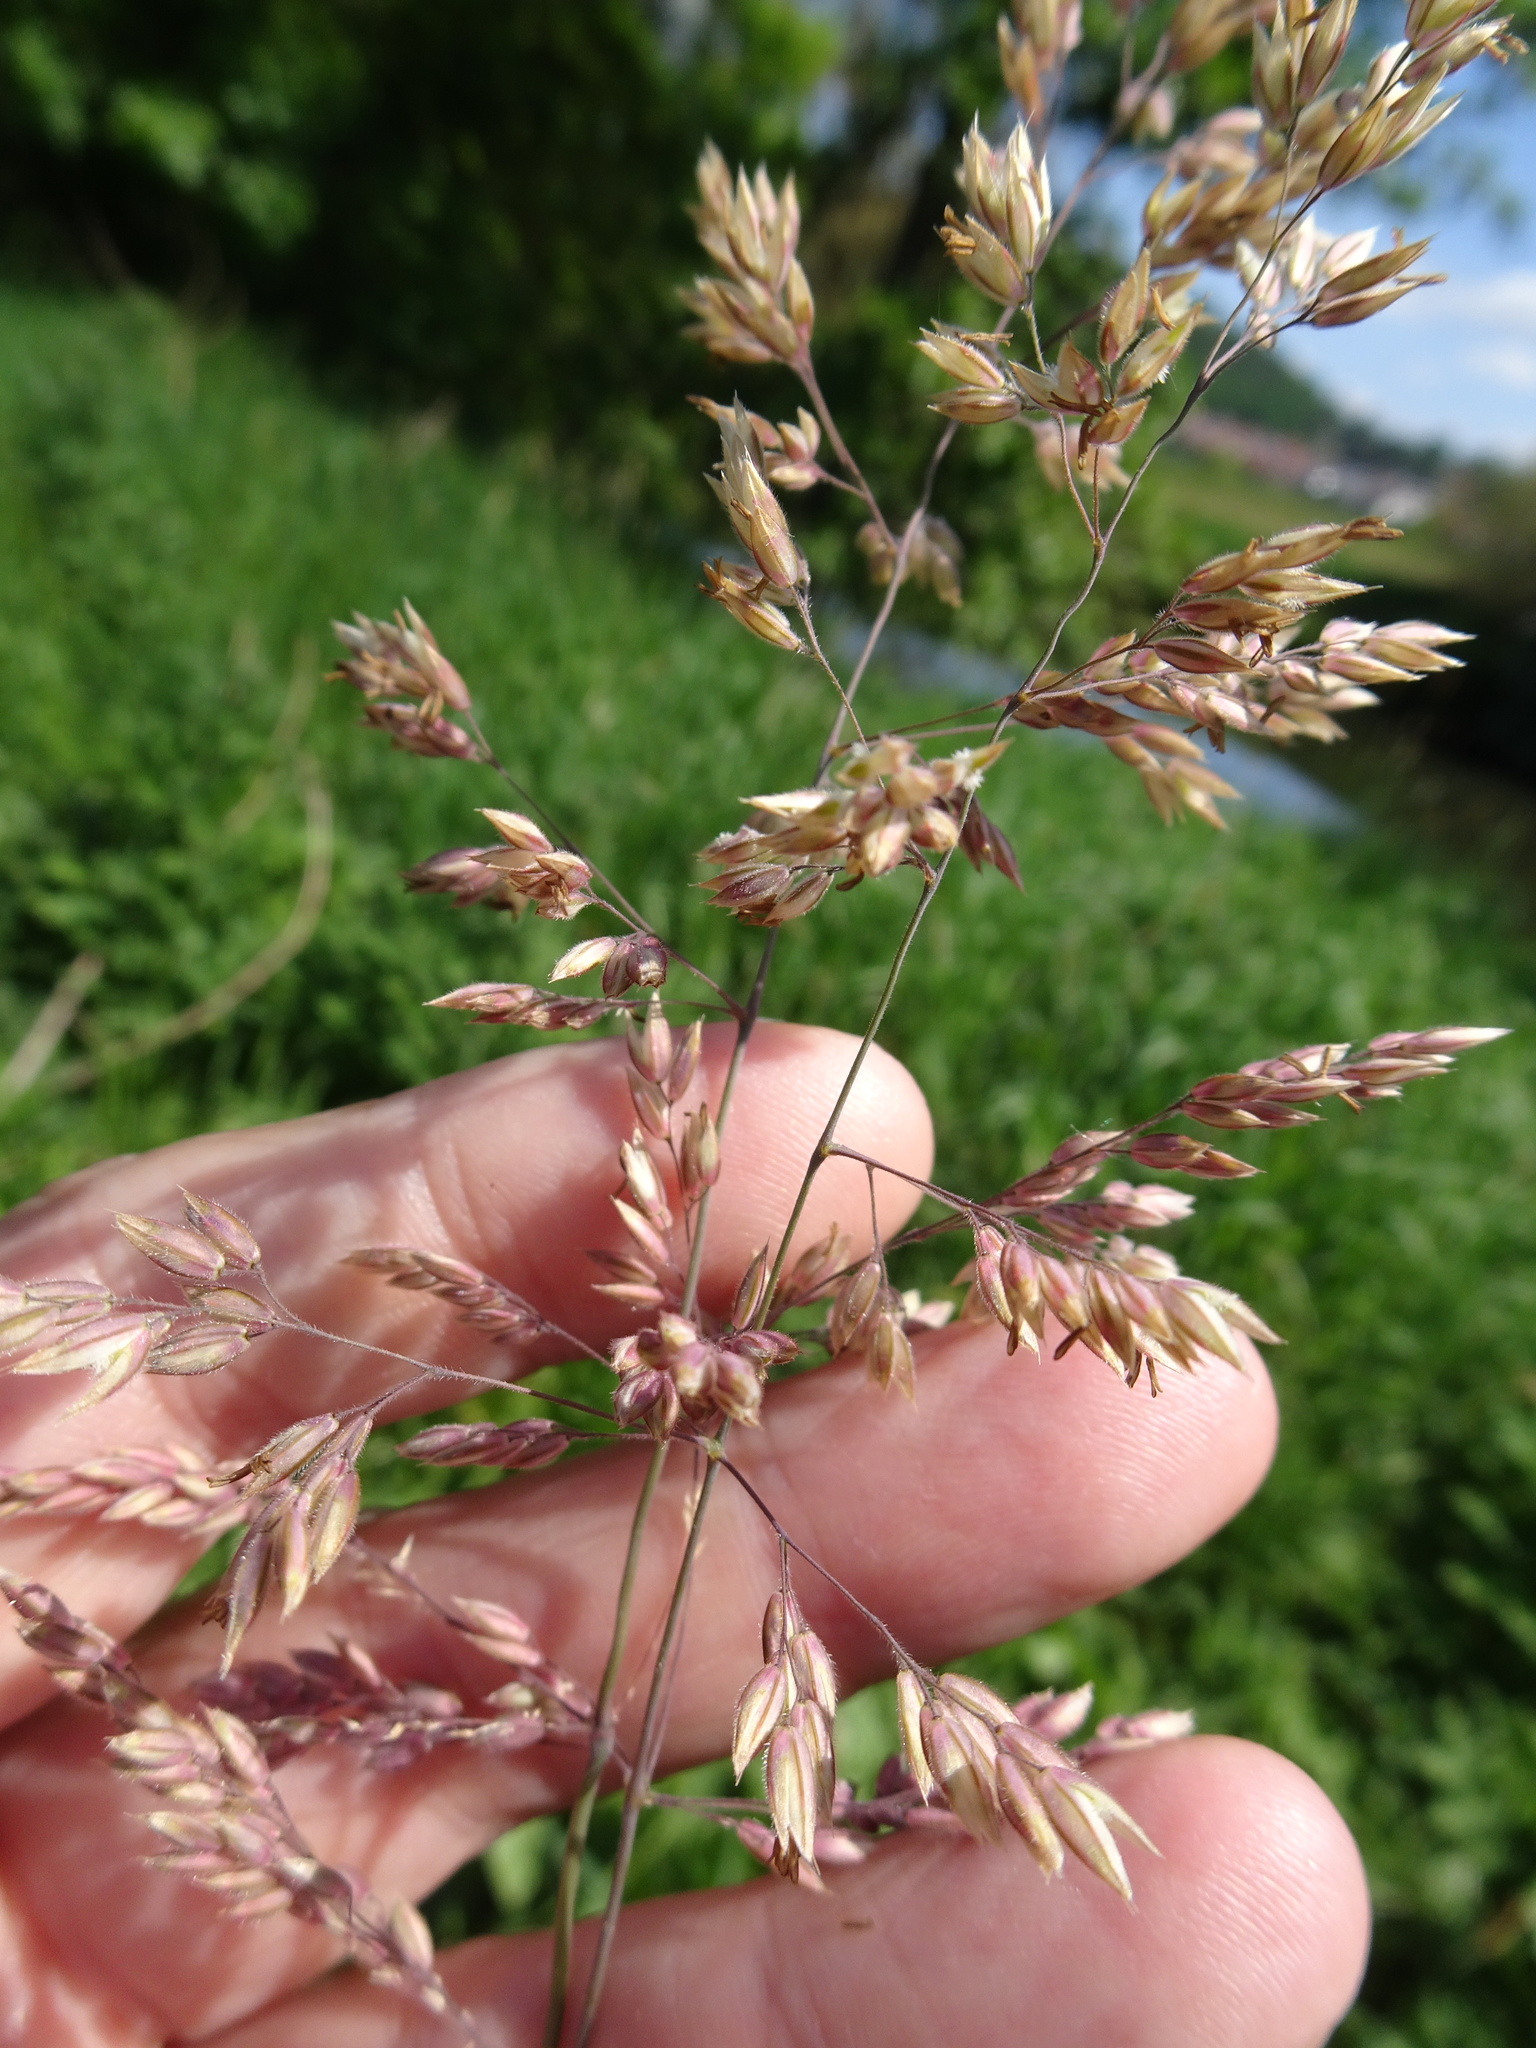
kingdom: Plantae
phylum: Tracheophyta
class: Liliopsida
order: Poales
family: Poaceae
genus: Holcus
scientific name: Holcus lanatus
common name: Yorkshire-fog
